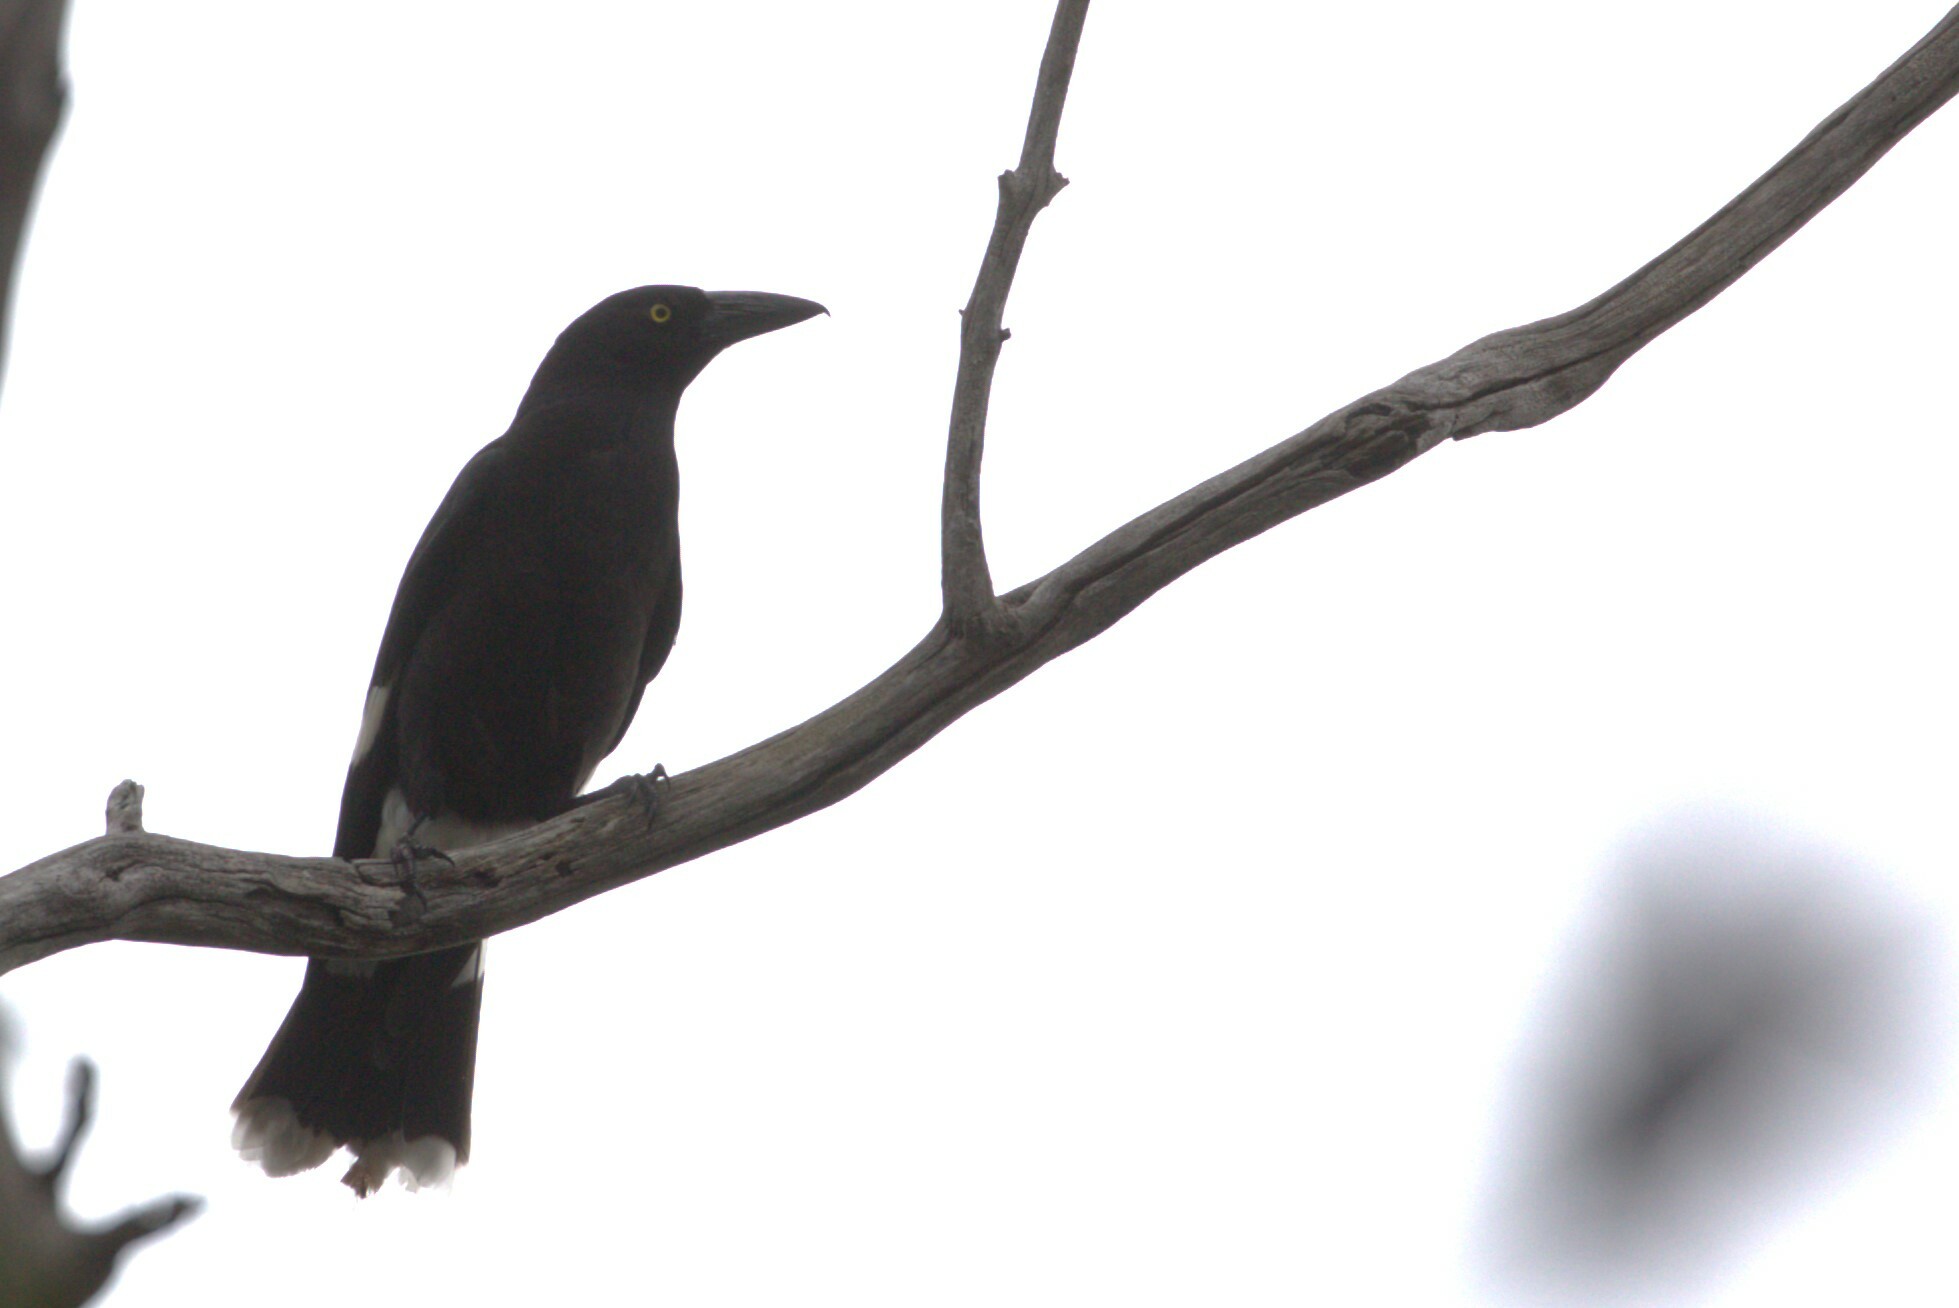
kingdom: Animalia
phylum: Chordata
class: Aves
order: Passeriformes
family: Cracticidae
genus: Strepera
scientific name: Strepera graculina
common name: Pied currawong
